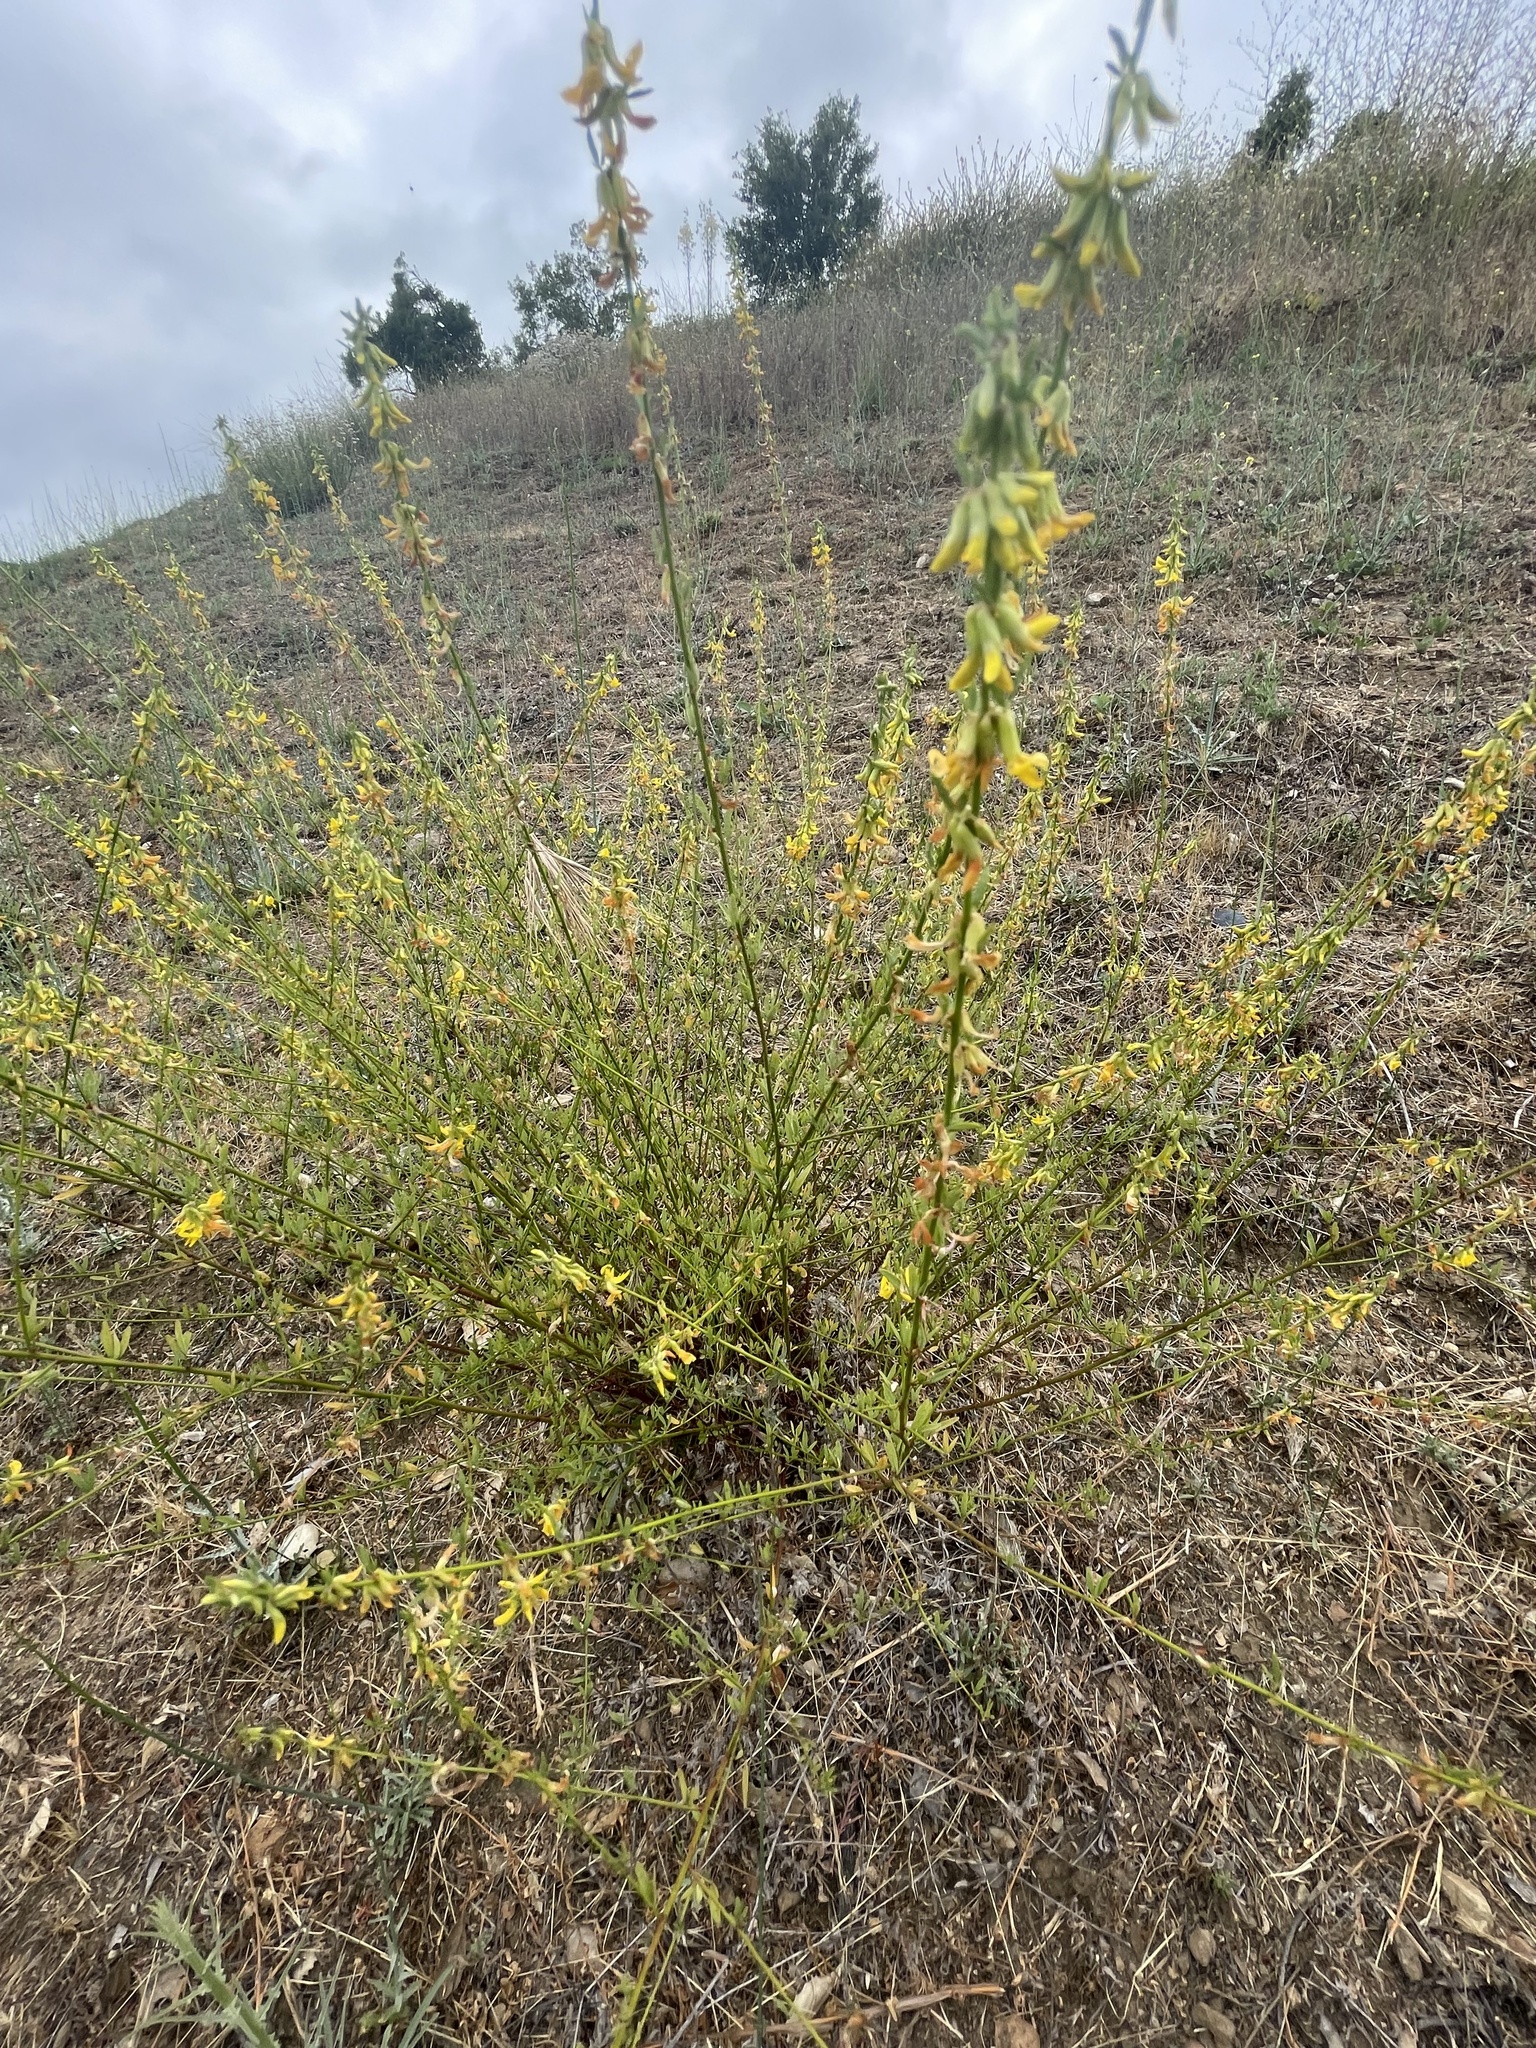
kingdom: Plantae
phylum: Tracheophyta
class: Magnoliopsida
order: Fabales
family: Fabaceae
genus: Acmispon
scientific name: Acmispon glaber
